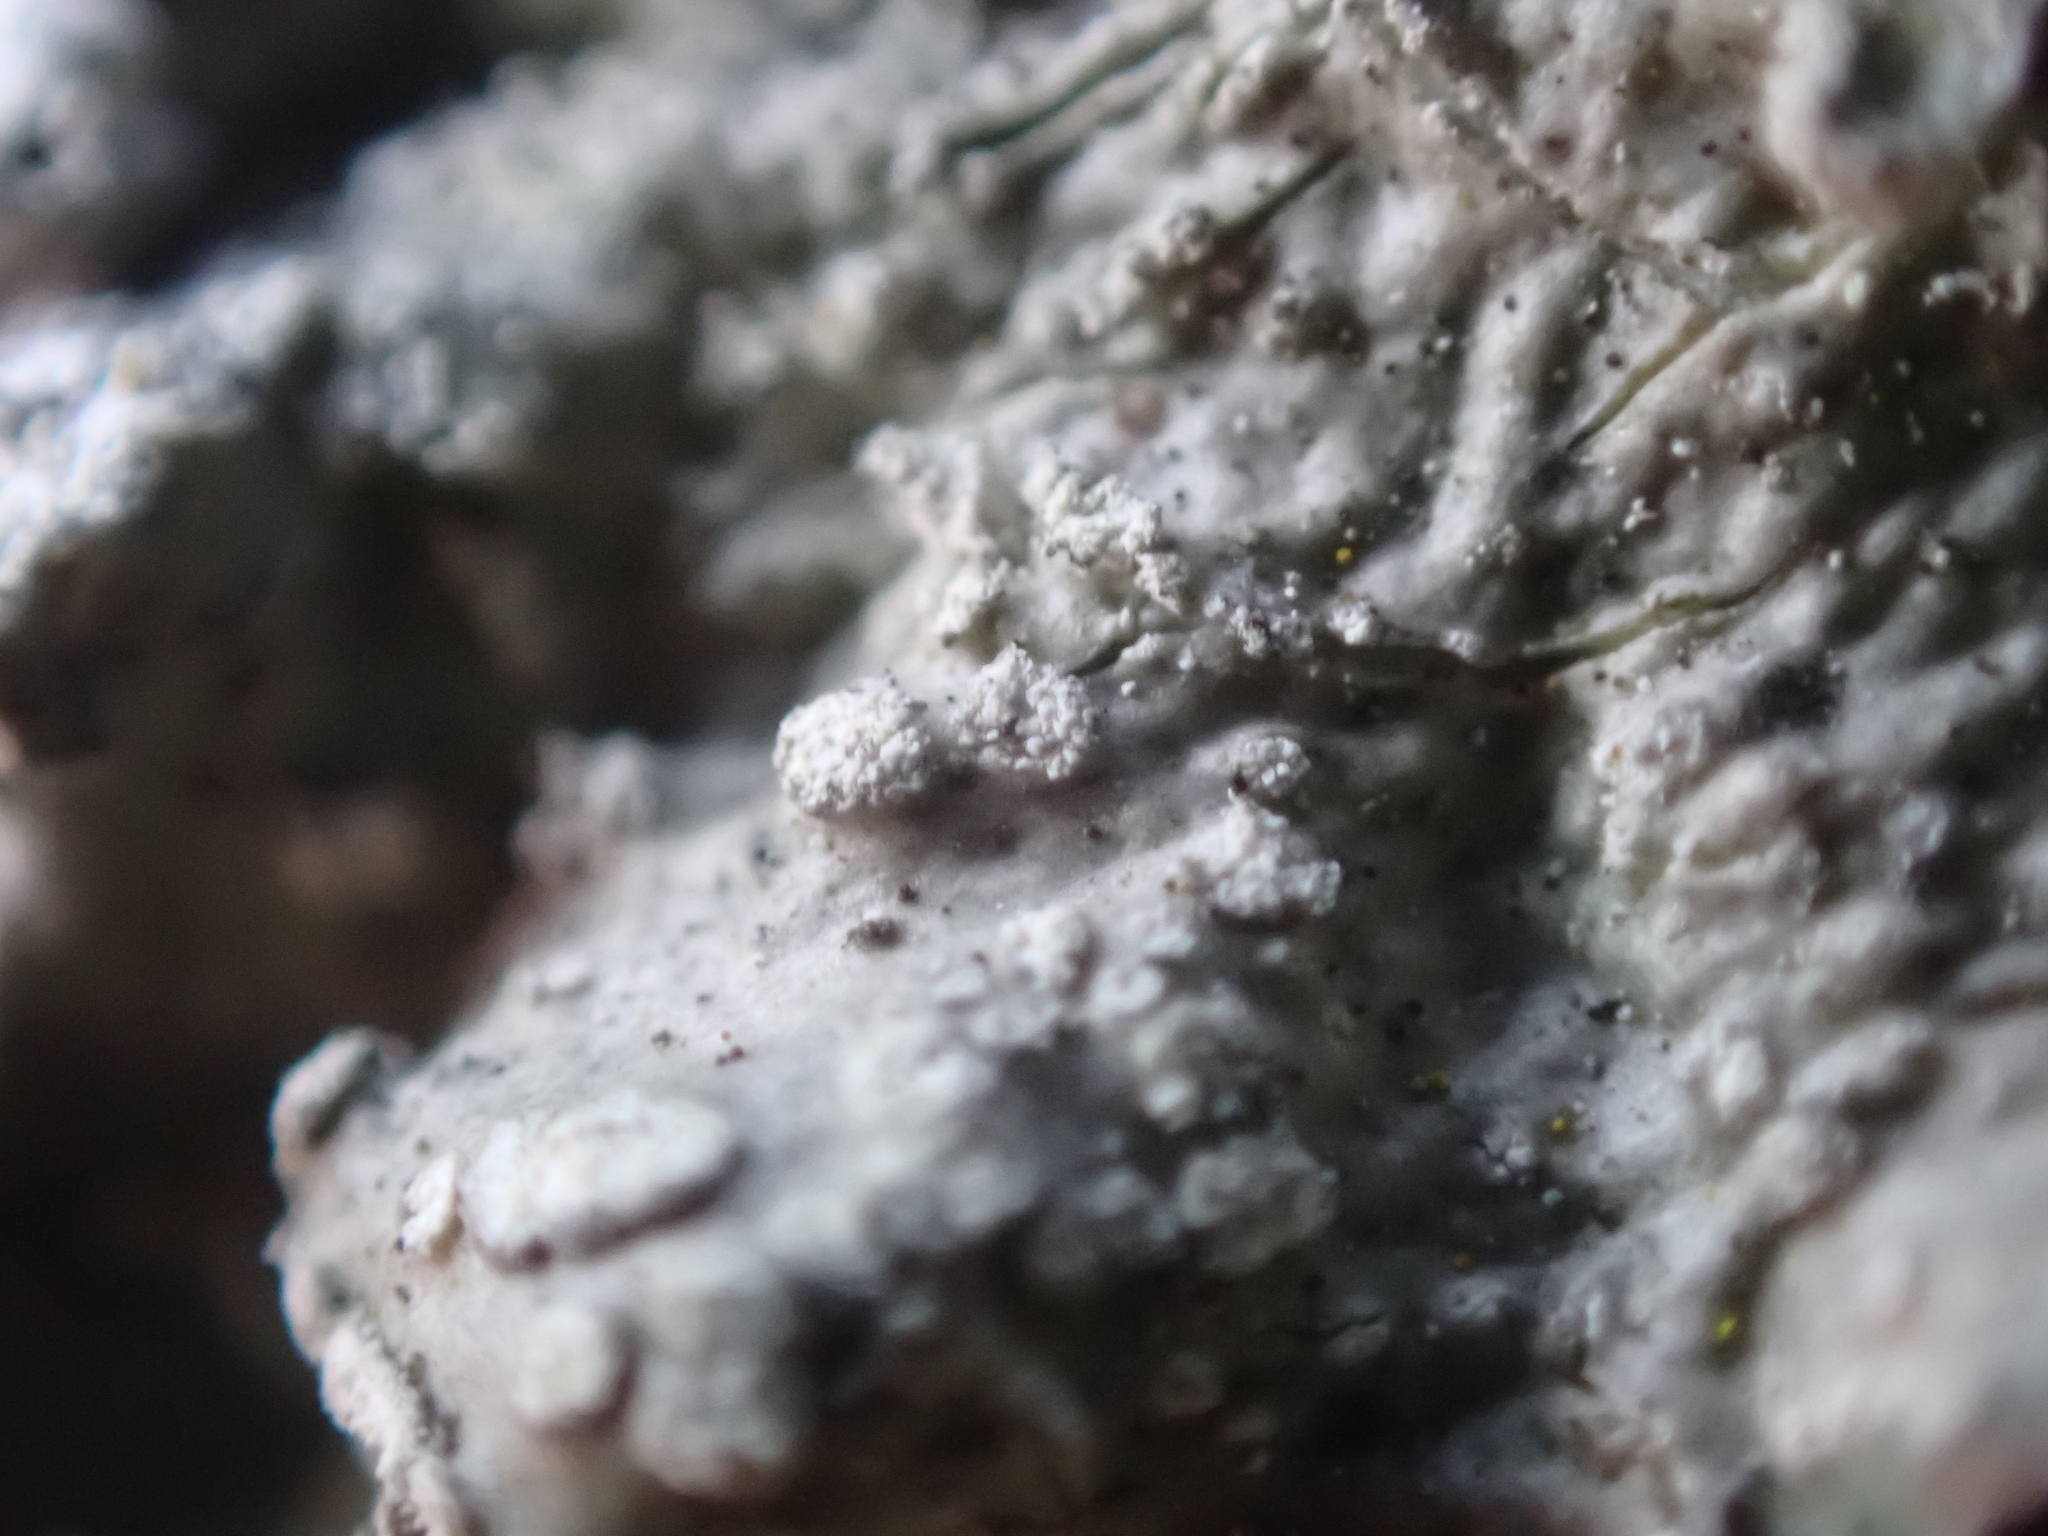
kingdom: Fungi
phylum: Ascomycota
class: Lecanoromycetes
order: Lecanorales
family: Parmeliaceae
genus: Punctelia
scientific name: Punctelia jeckeri
